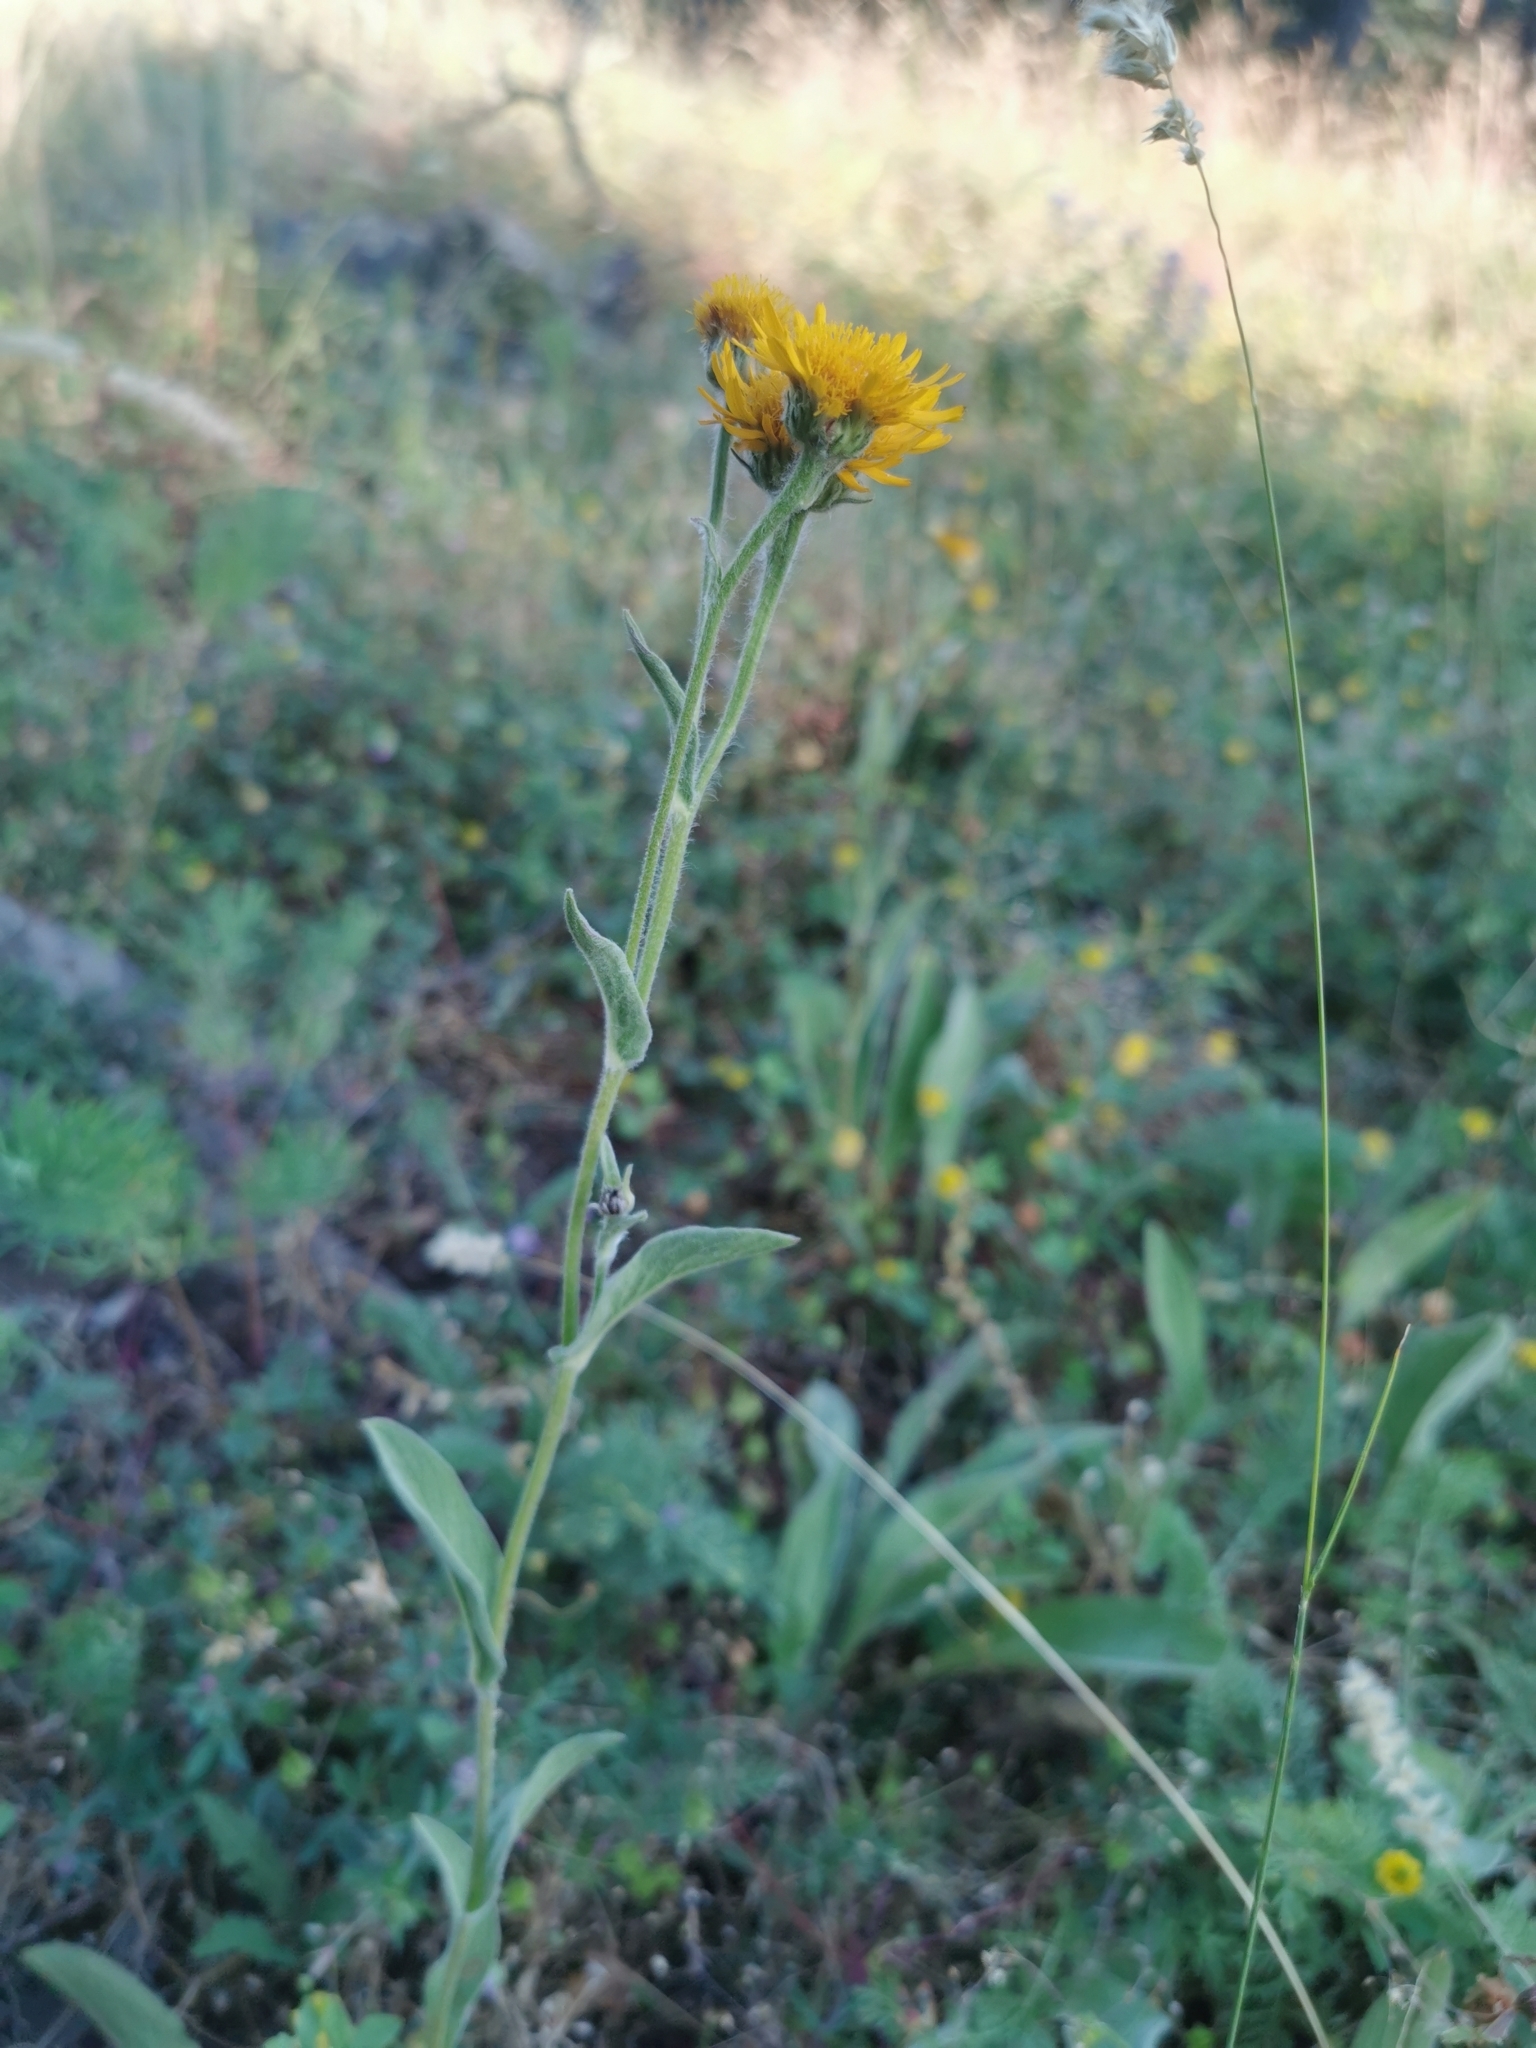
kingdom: Plantae
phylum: Tracheophyta
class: Magnoliopsida
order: Asterales
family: Asteraceae
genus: Pentanema
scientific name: Pentanema oculus-christi
